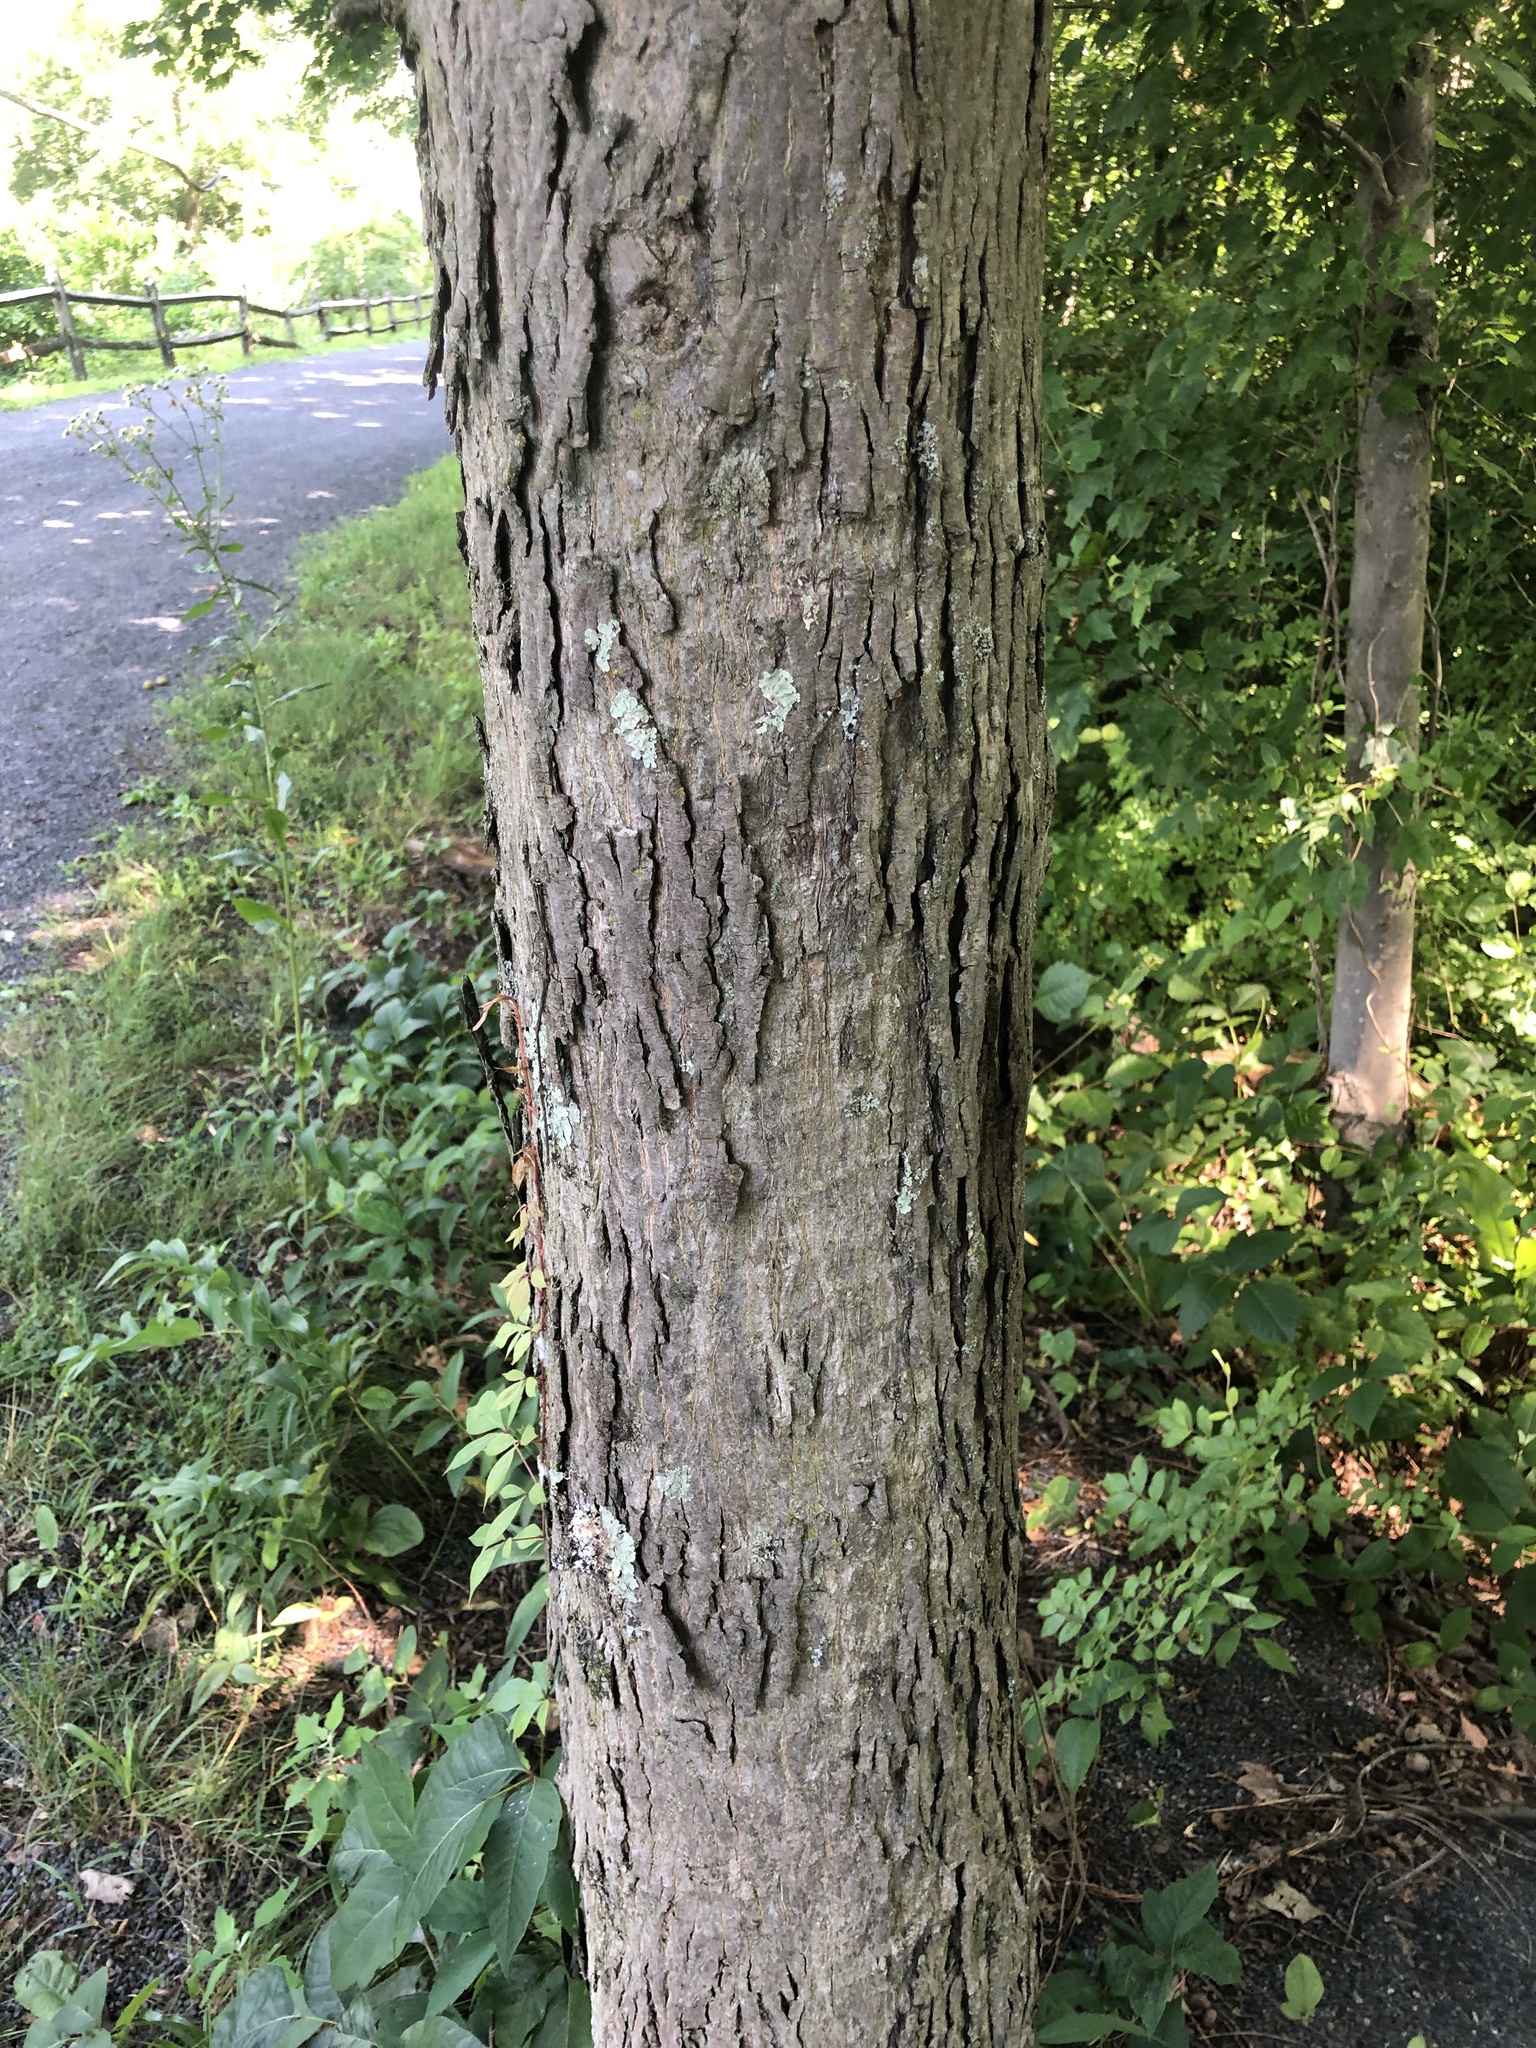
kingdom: Plantae
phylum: Tracheophyta
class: Magnoliopsida
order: Fagales
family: Juglandaceae
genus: Carya
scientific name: Carya ovata
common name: Shagbark hickory
